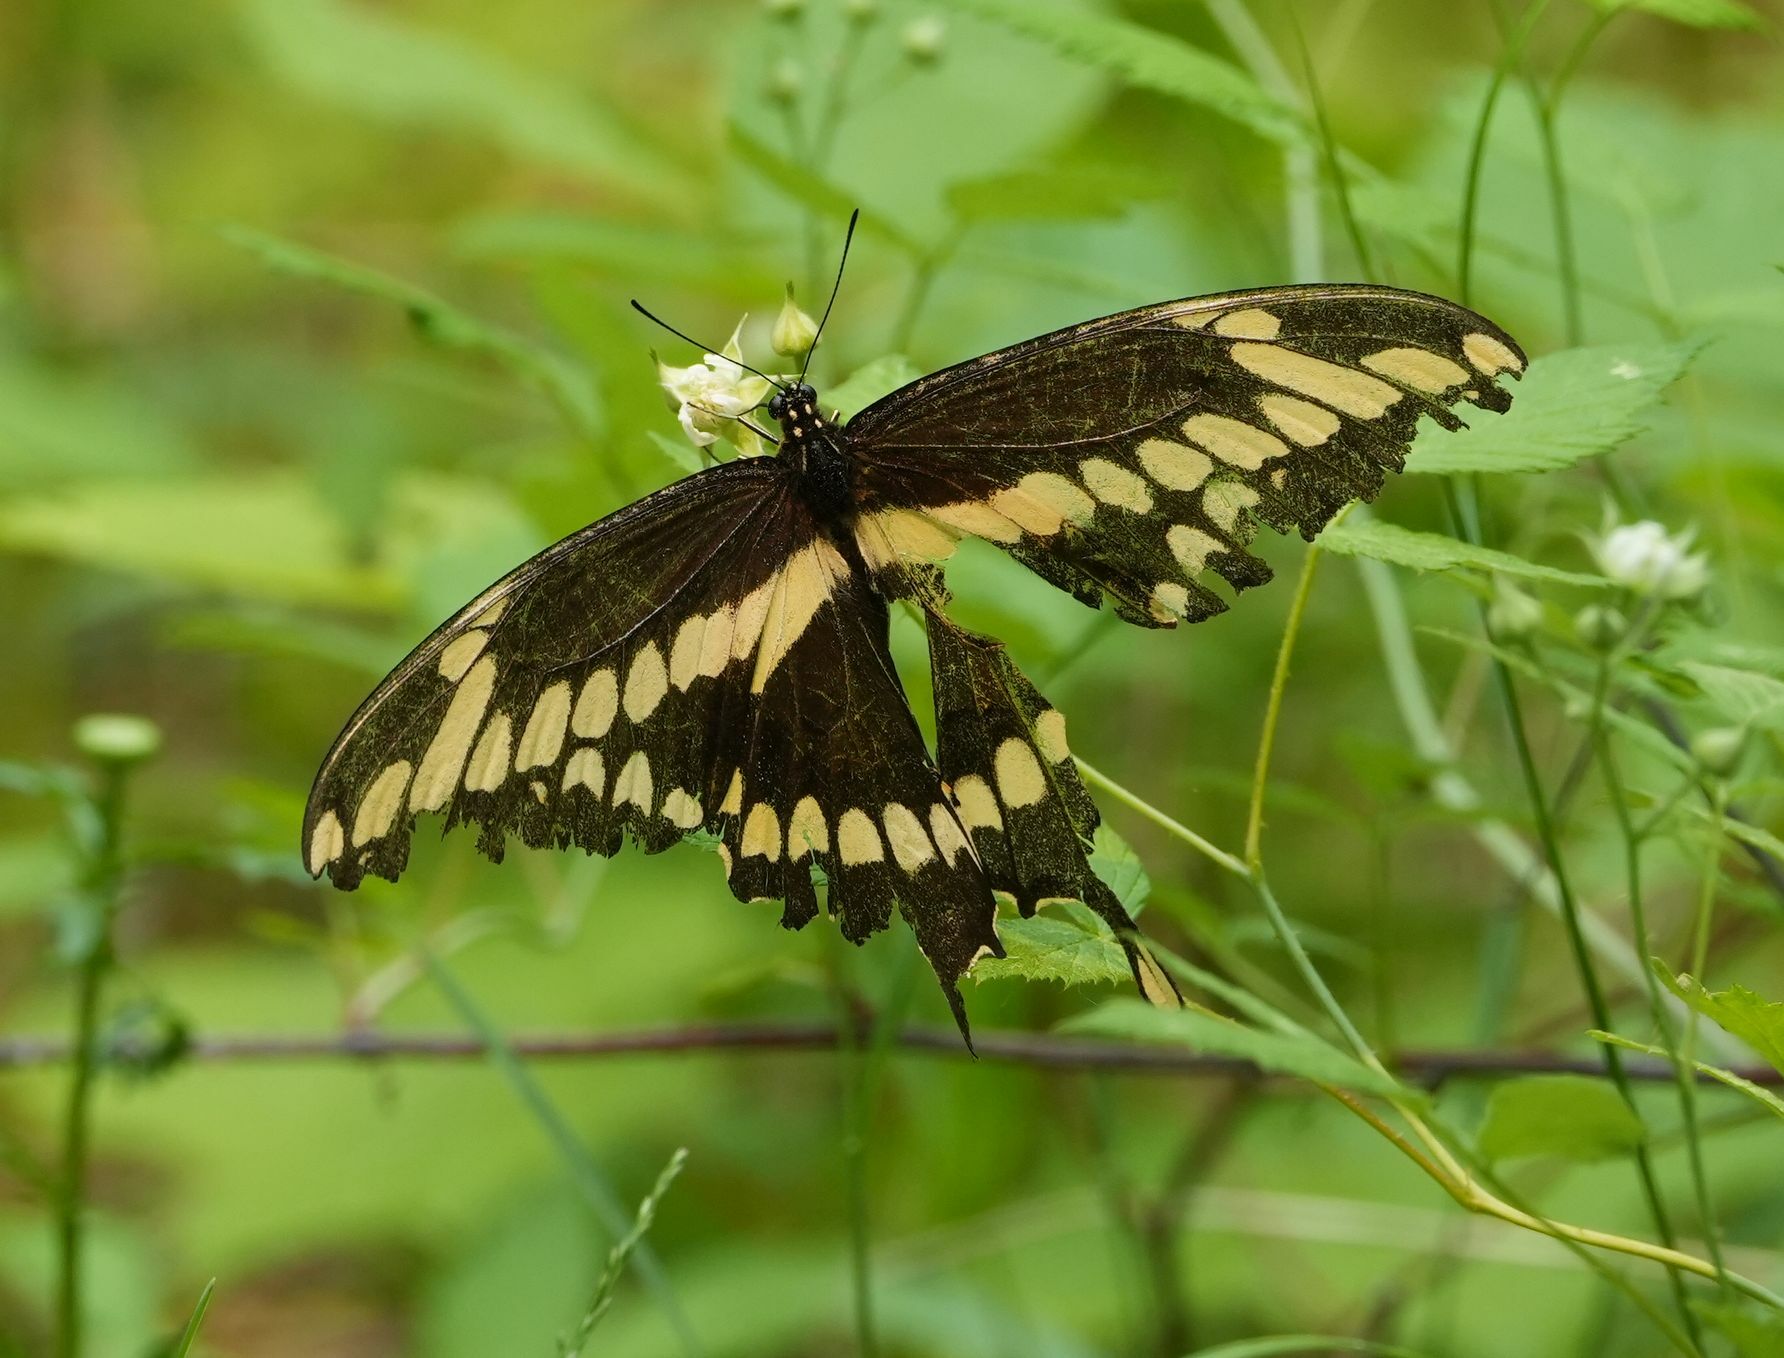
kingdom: Animalia
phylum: Arthropoda
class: Insecta
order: Lepidoptera
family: Papilionidae
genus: Papilio
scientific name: Papilio cresphontes
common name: Giant swallowtail
